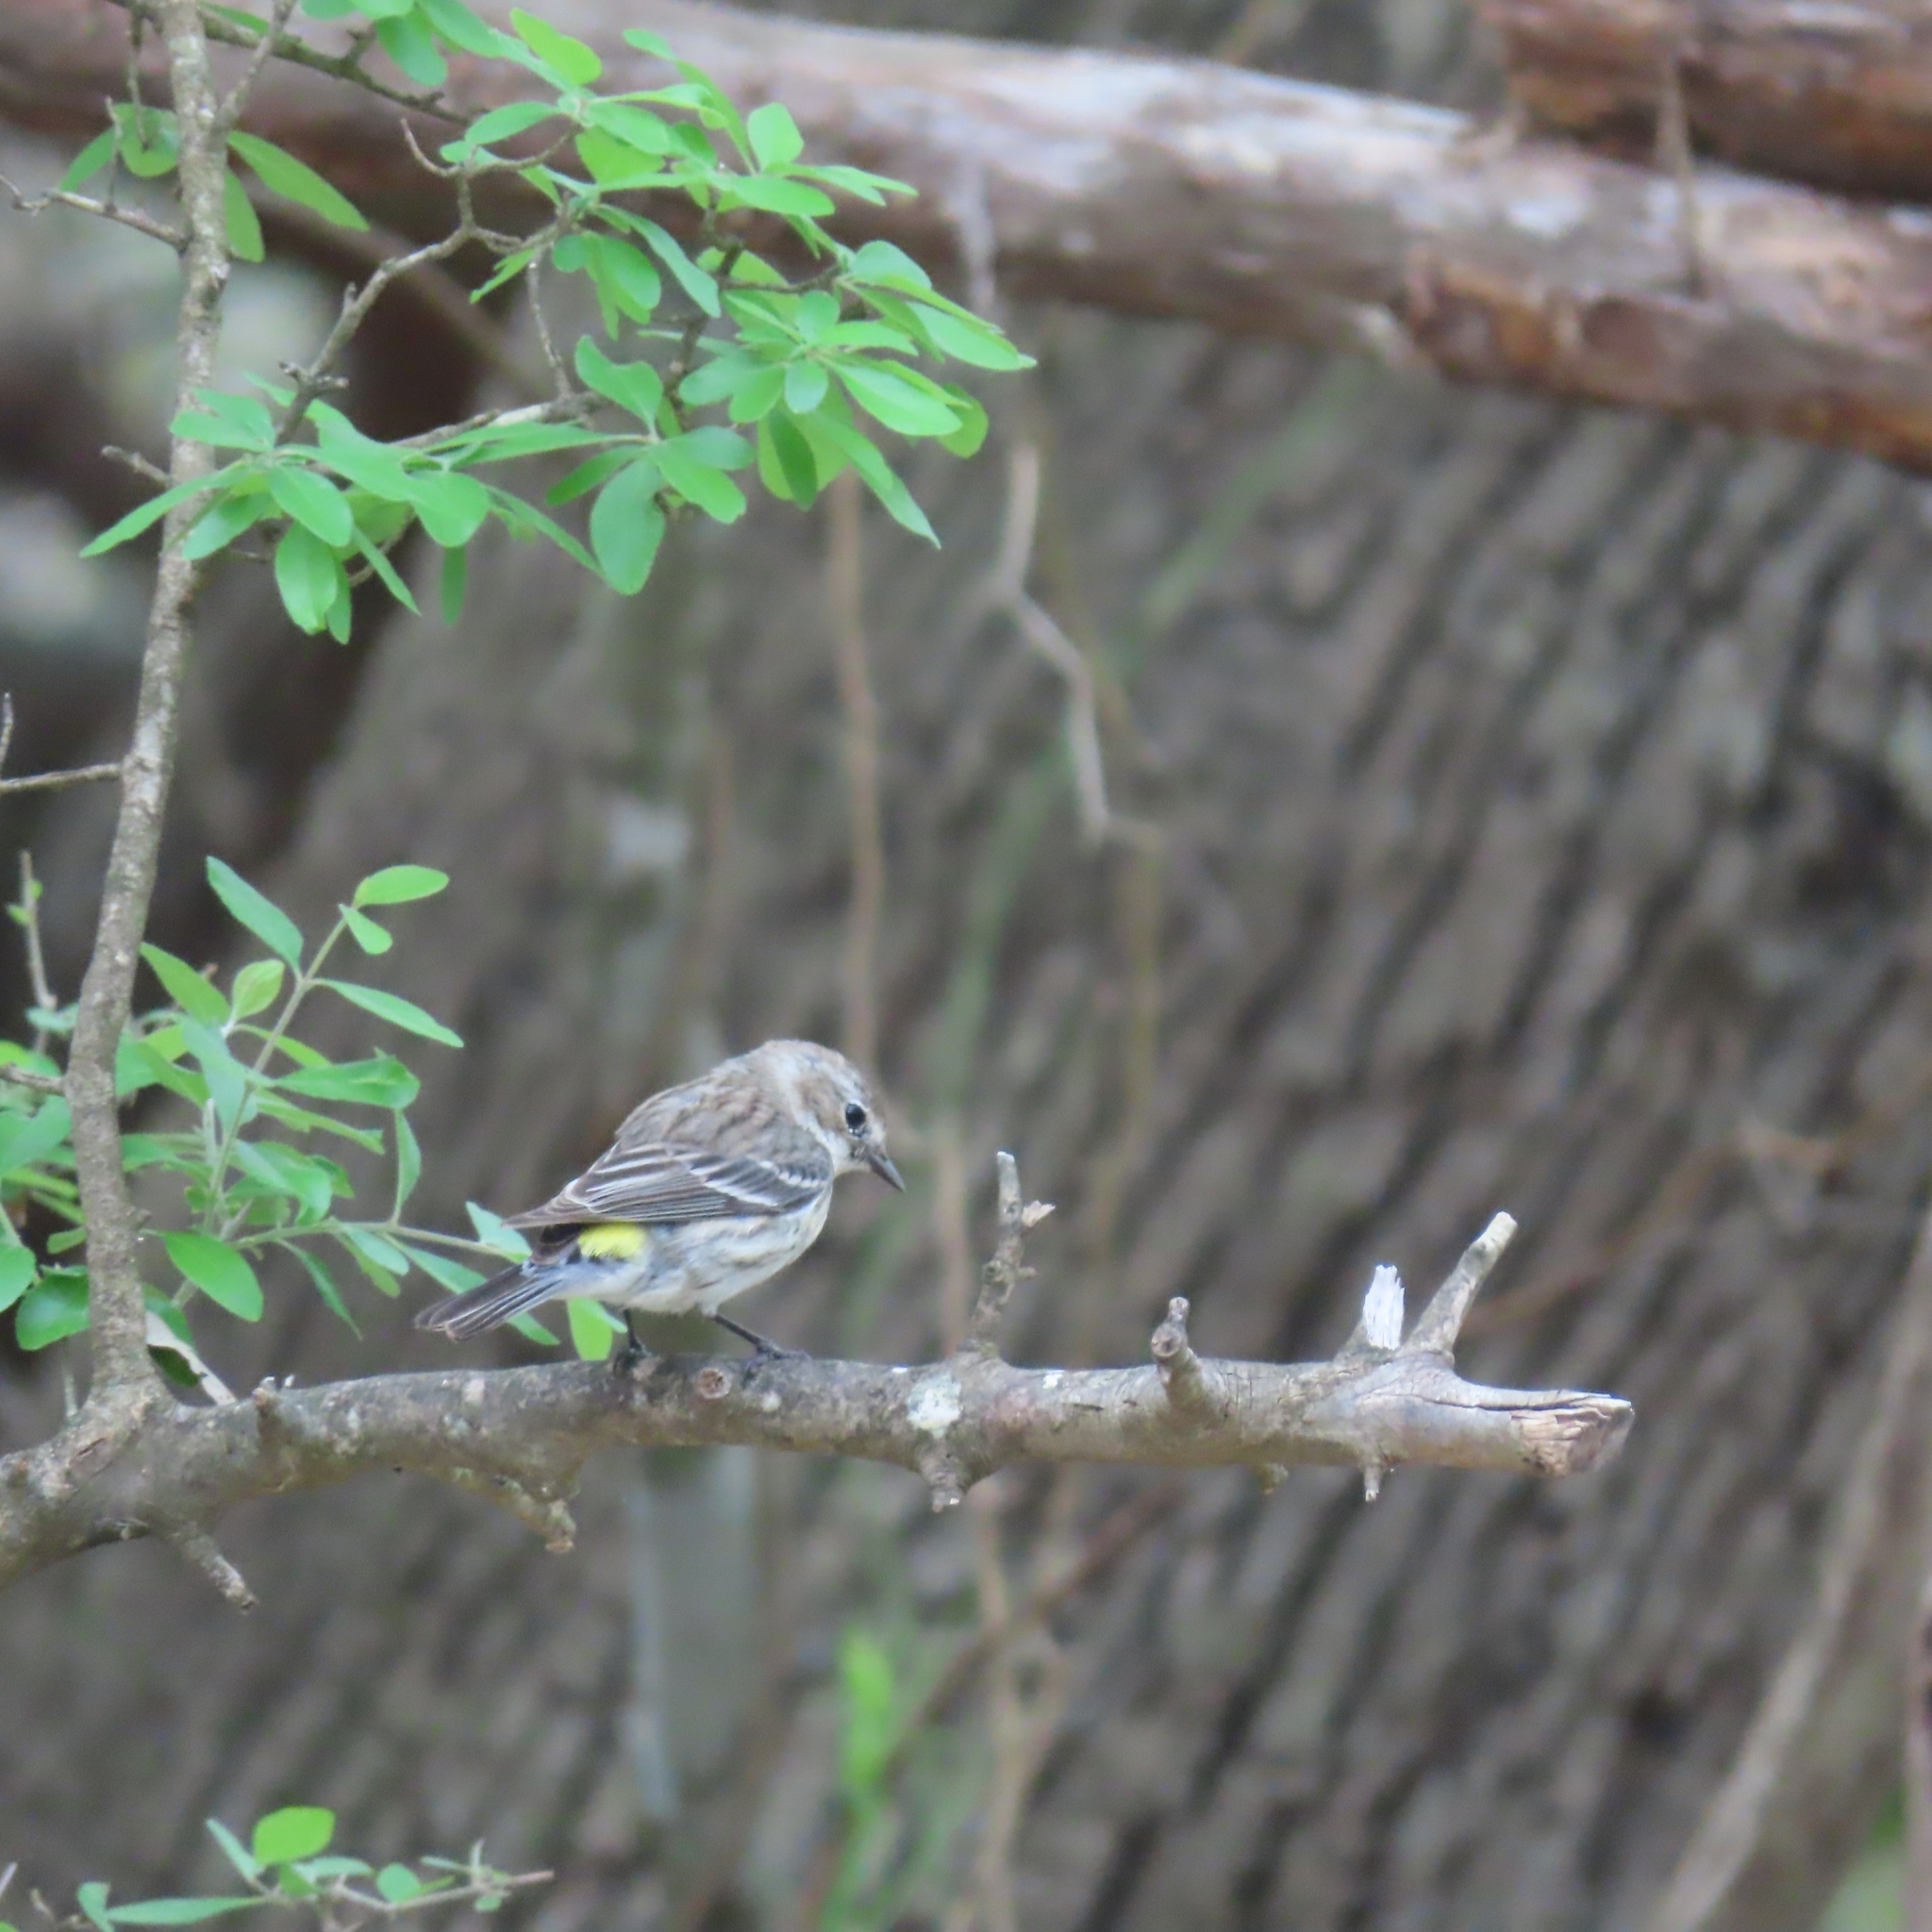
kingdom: Animalia
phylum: Chordata
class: Aves
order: Passeriformes
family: Parulidae
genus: Setophaga
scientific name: Setophaga coronata
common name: Myrtle warbler
